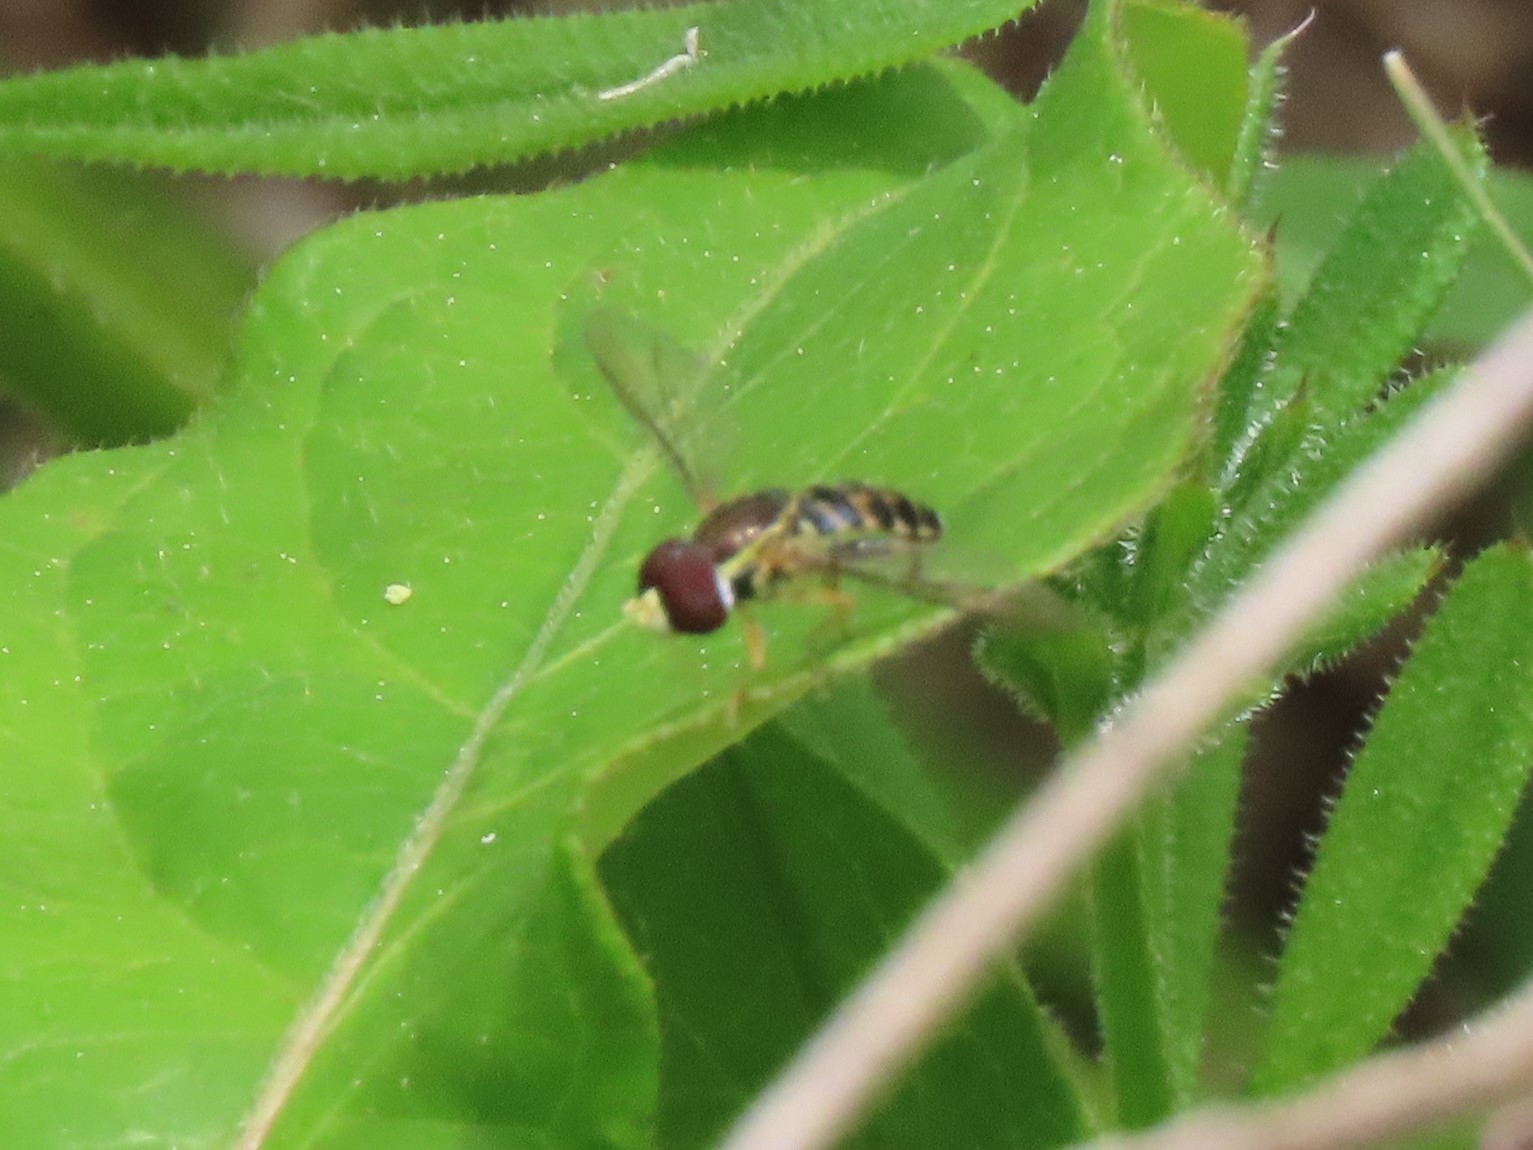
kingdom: Animalia
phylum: Arthropoda
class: Insecta
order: Diptera
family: Syrphidae
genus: Toxomerus
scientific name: Toxomerus geminatus
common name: Eastern calligrapher
